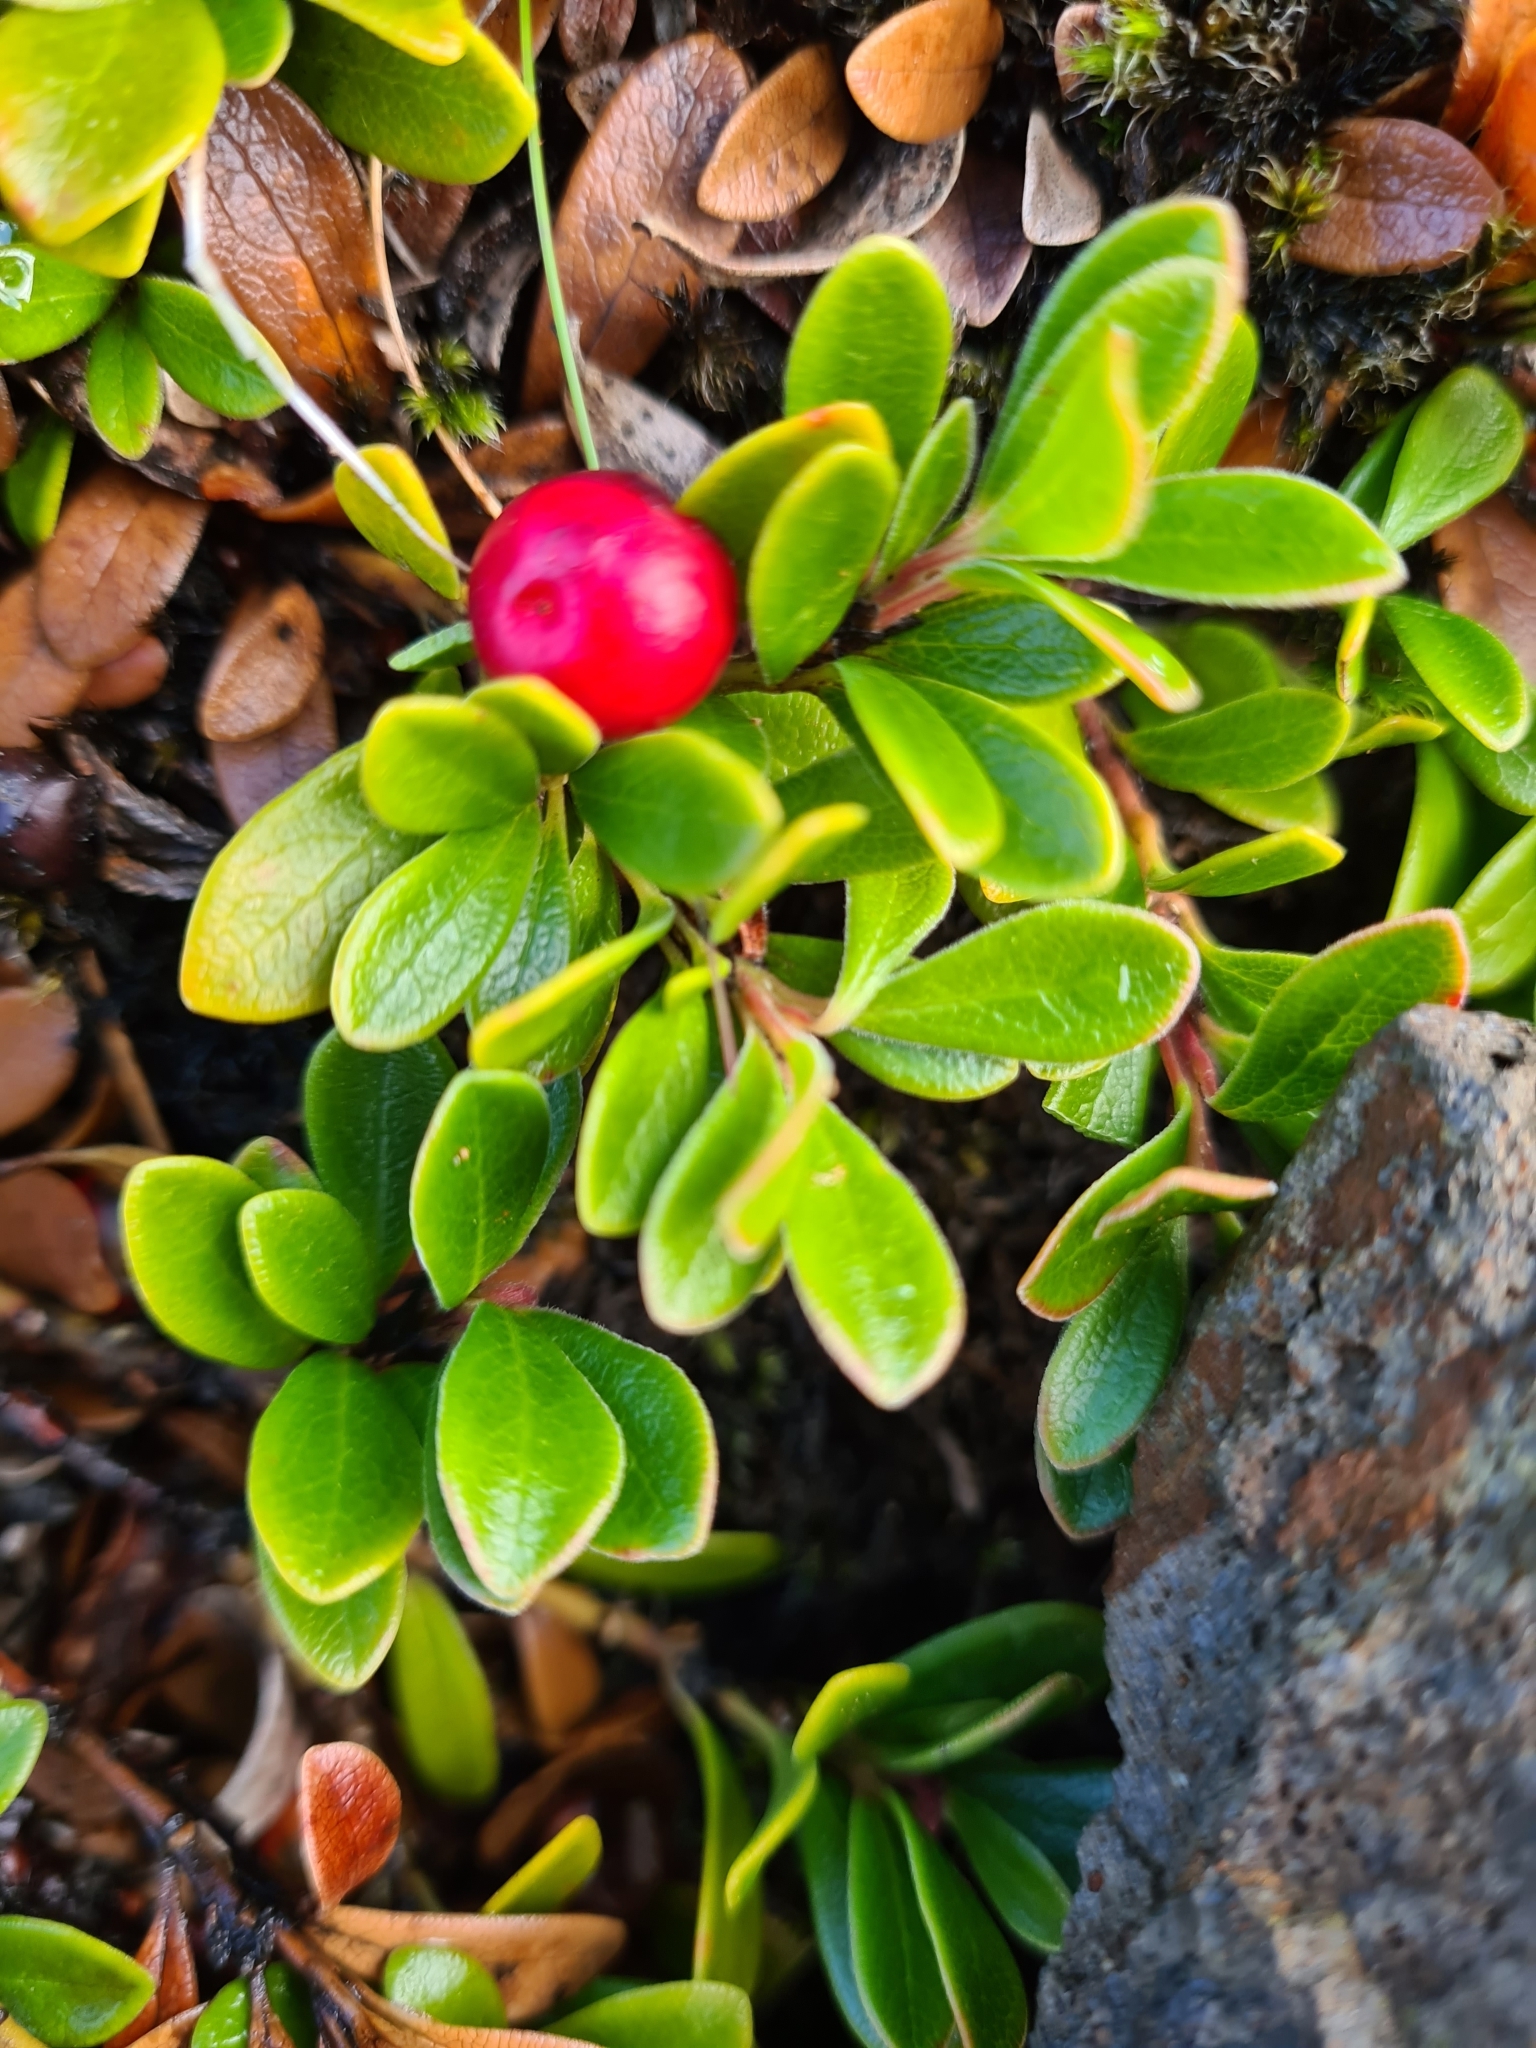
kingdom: Plantae
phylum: Tracheophyta
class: Magnoliopsida
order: Ericales
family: Ericaceae
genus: Arctostaphylos
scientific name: Arctostaphylos uva-ursi
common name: Bearberry
